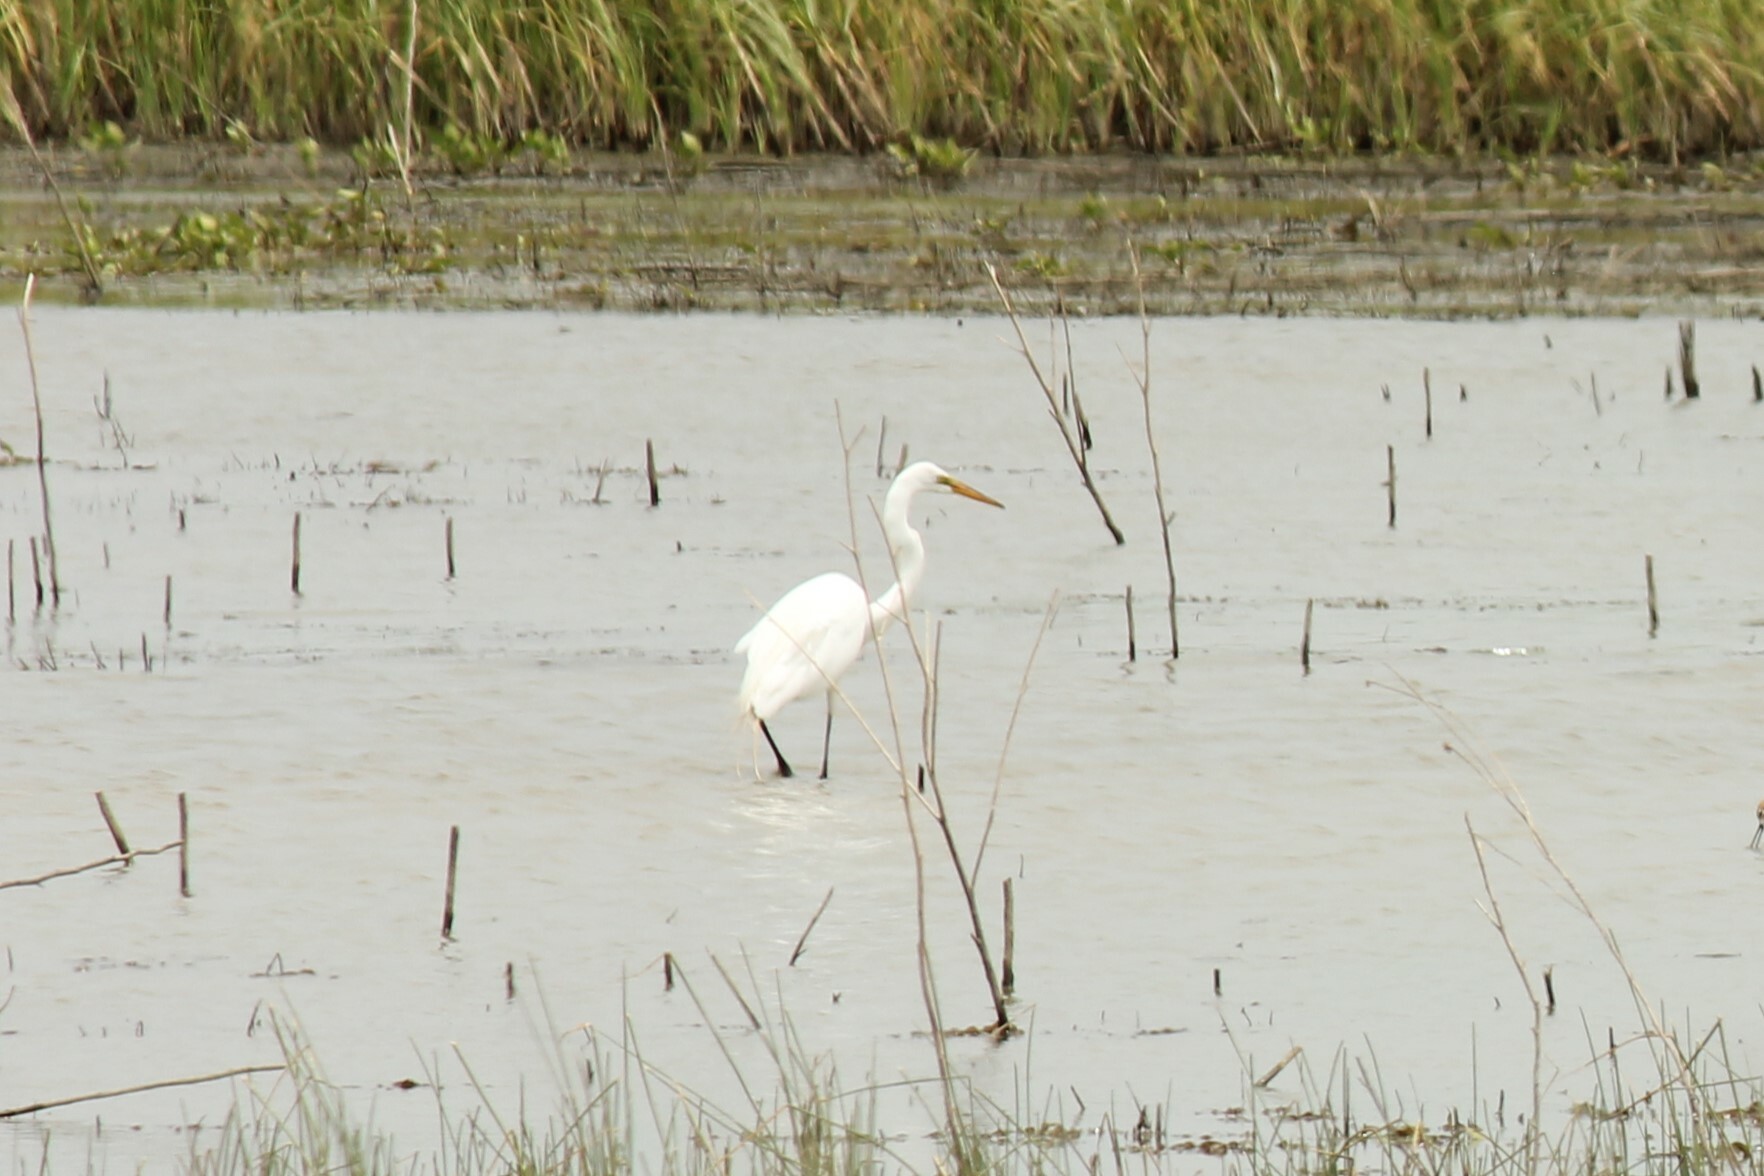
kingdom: Animalia
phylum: Chordata
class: Aves
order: Pelecaniformes
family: Ardeidae
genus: Ardea
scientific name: Ardea alba
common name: Great egret
